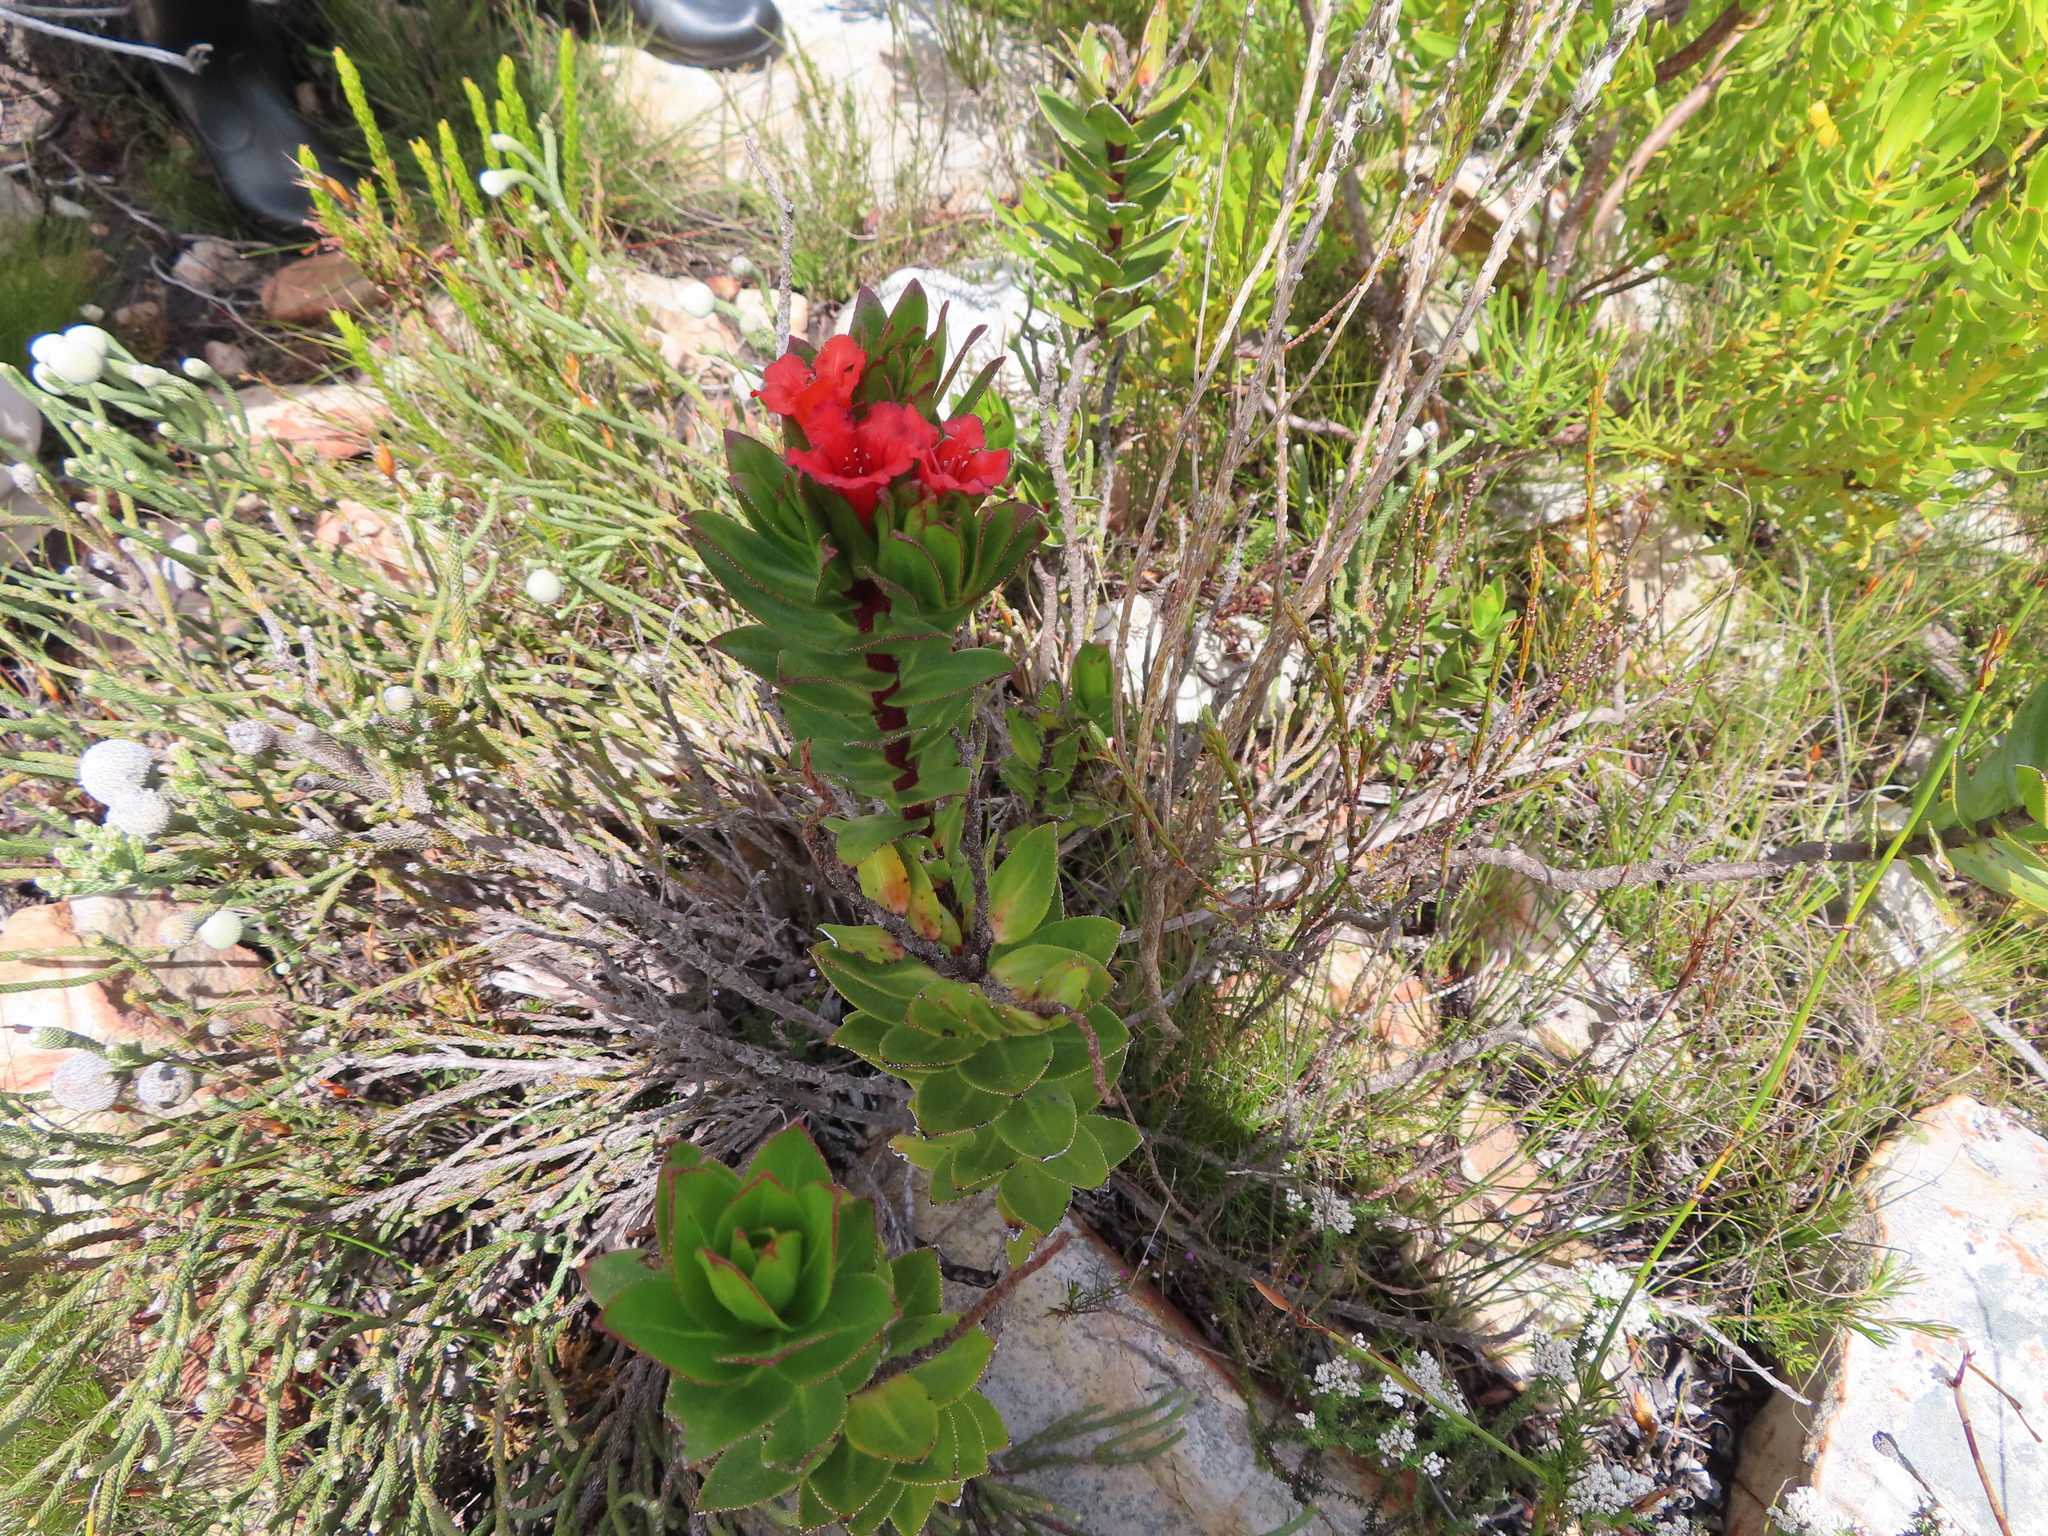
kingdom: Plantae
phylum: Tracheophyta
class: Magnoliopsida
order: Boraginales
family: Boraginaceae
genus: Lobostemon
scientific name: Lobostemon sanguineus
